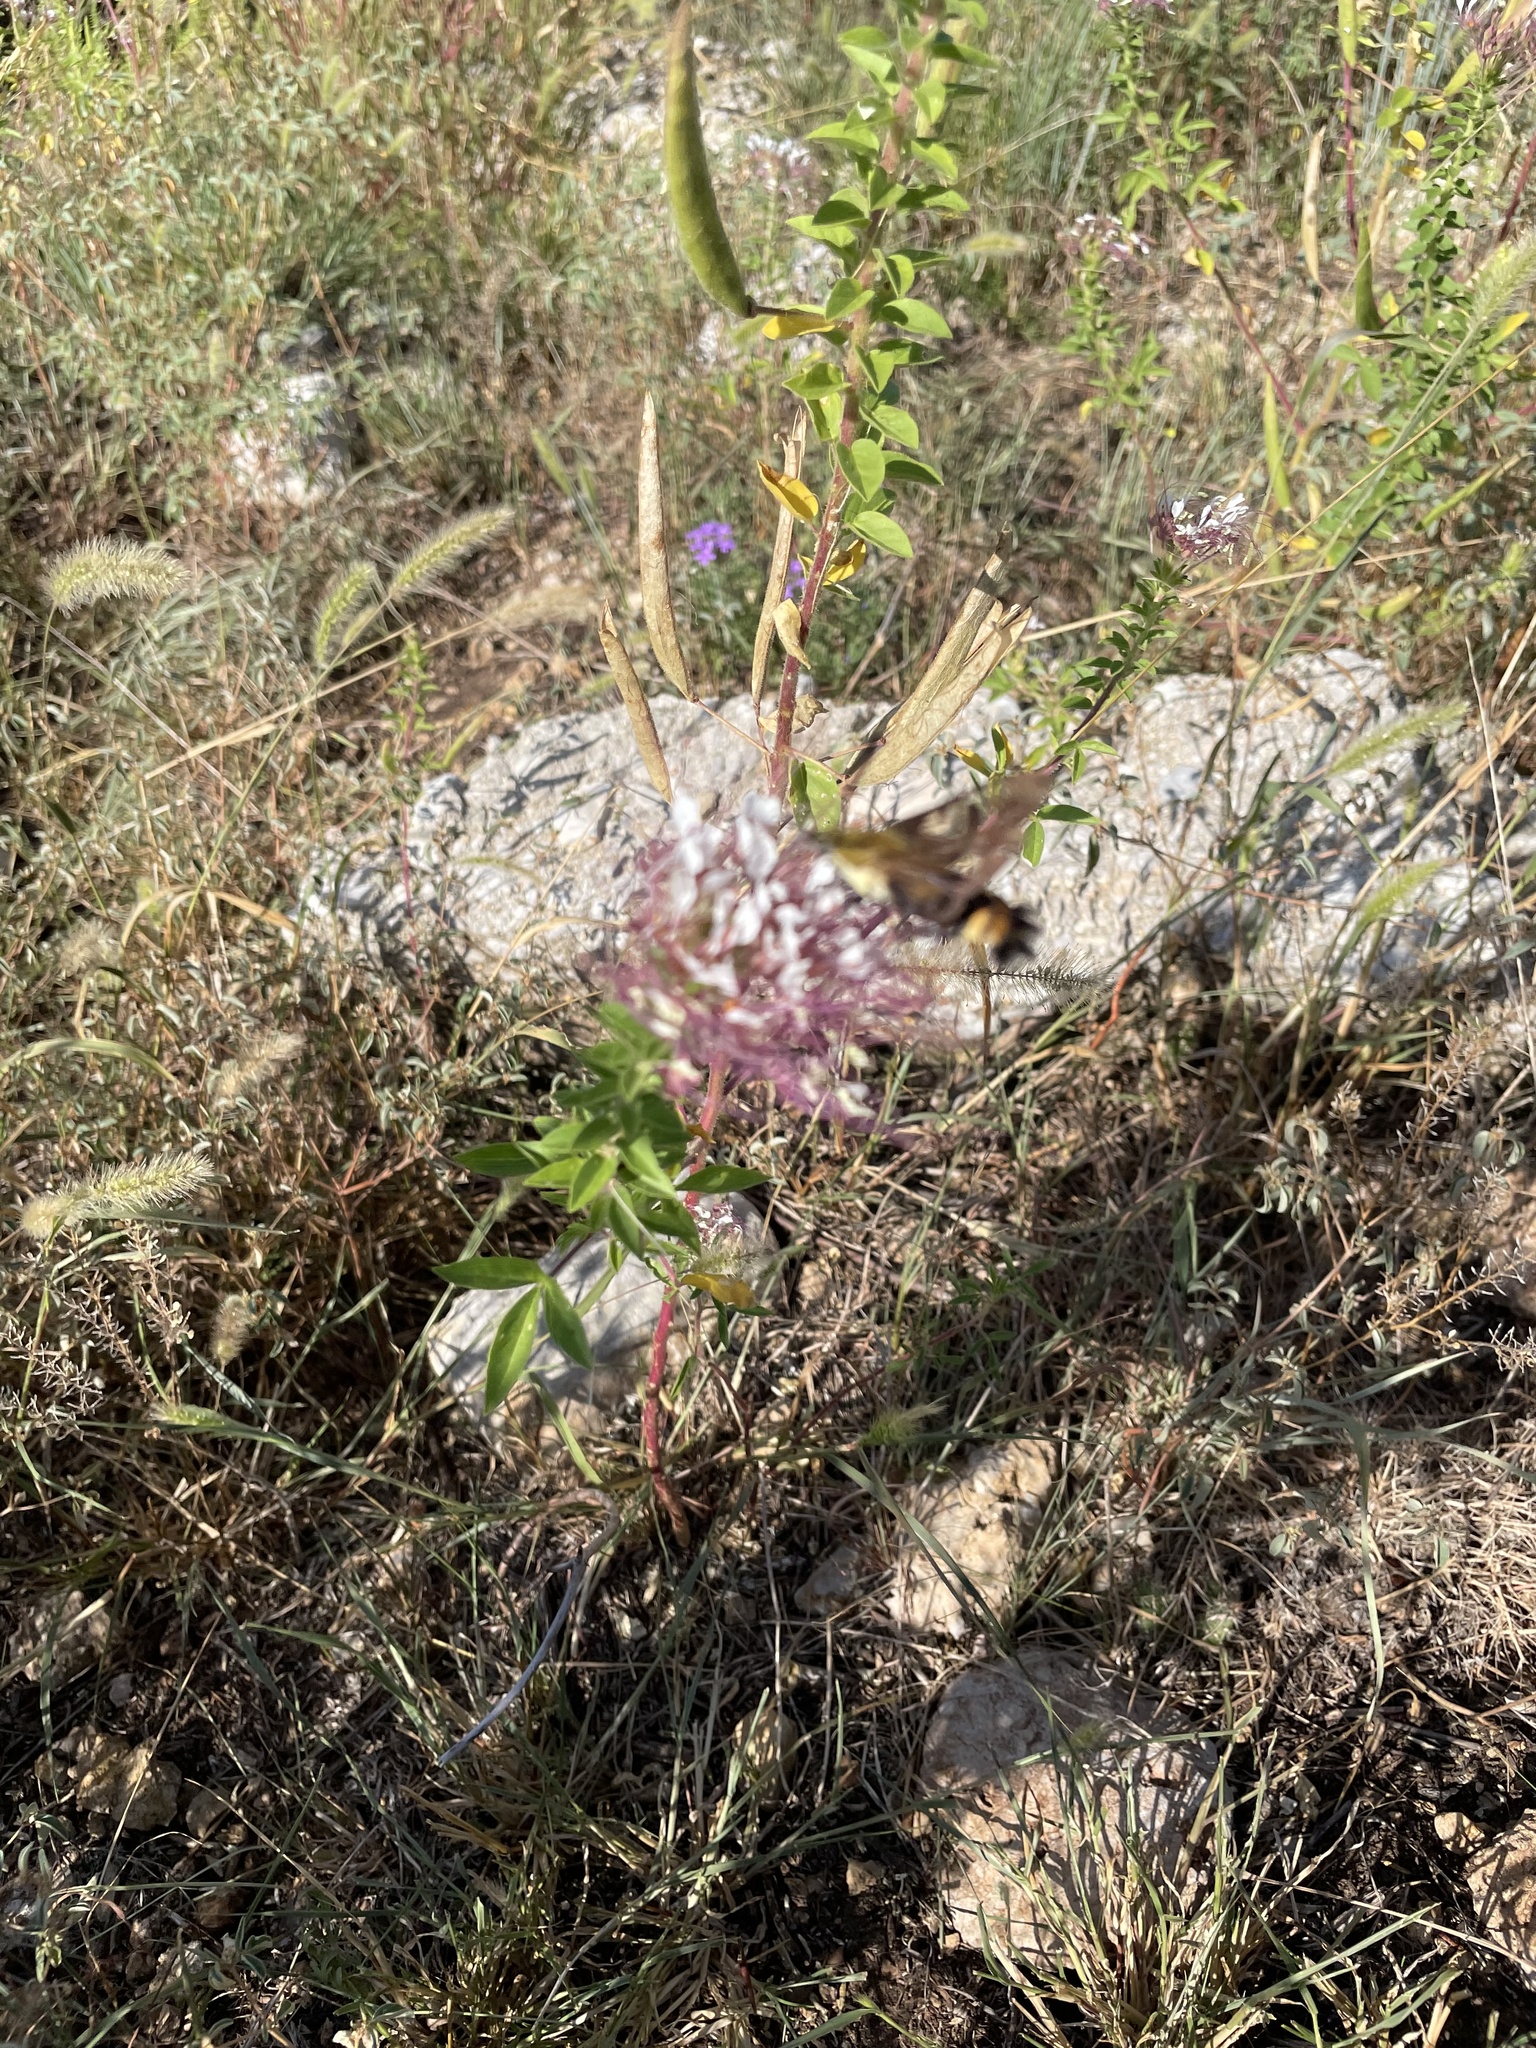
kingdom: Animalia
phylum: Arthropoda
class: Insecta
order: Lepidoptera
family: Sphingidae
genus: Hemaris
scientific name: Hemaris diffinis
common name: Bumblebee moth
